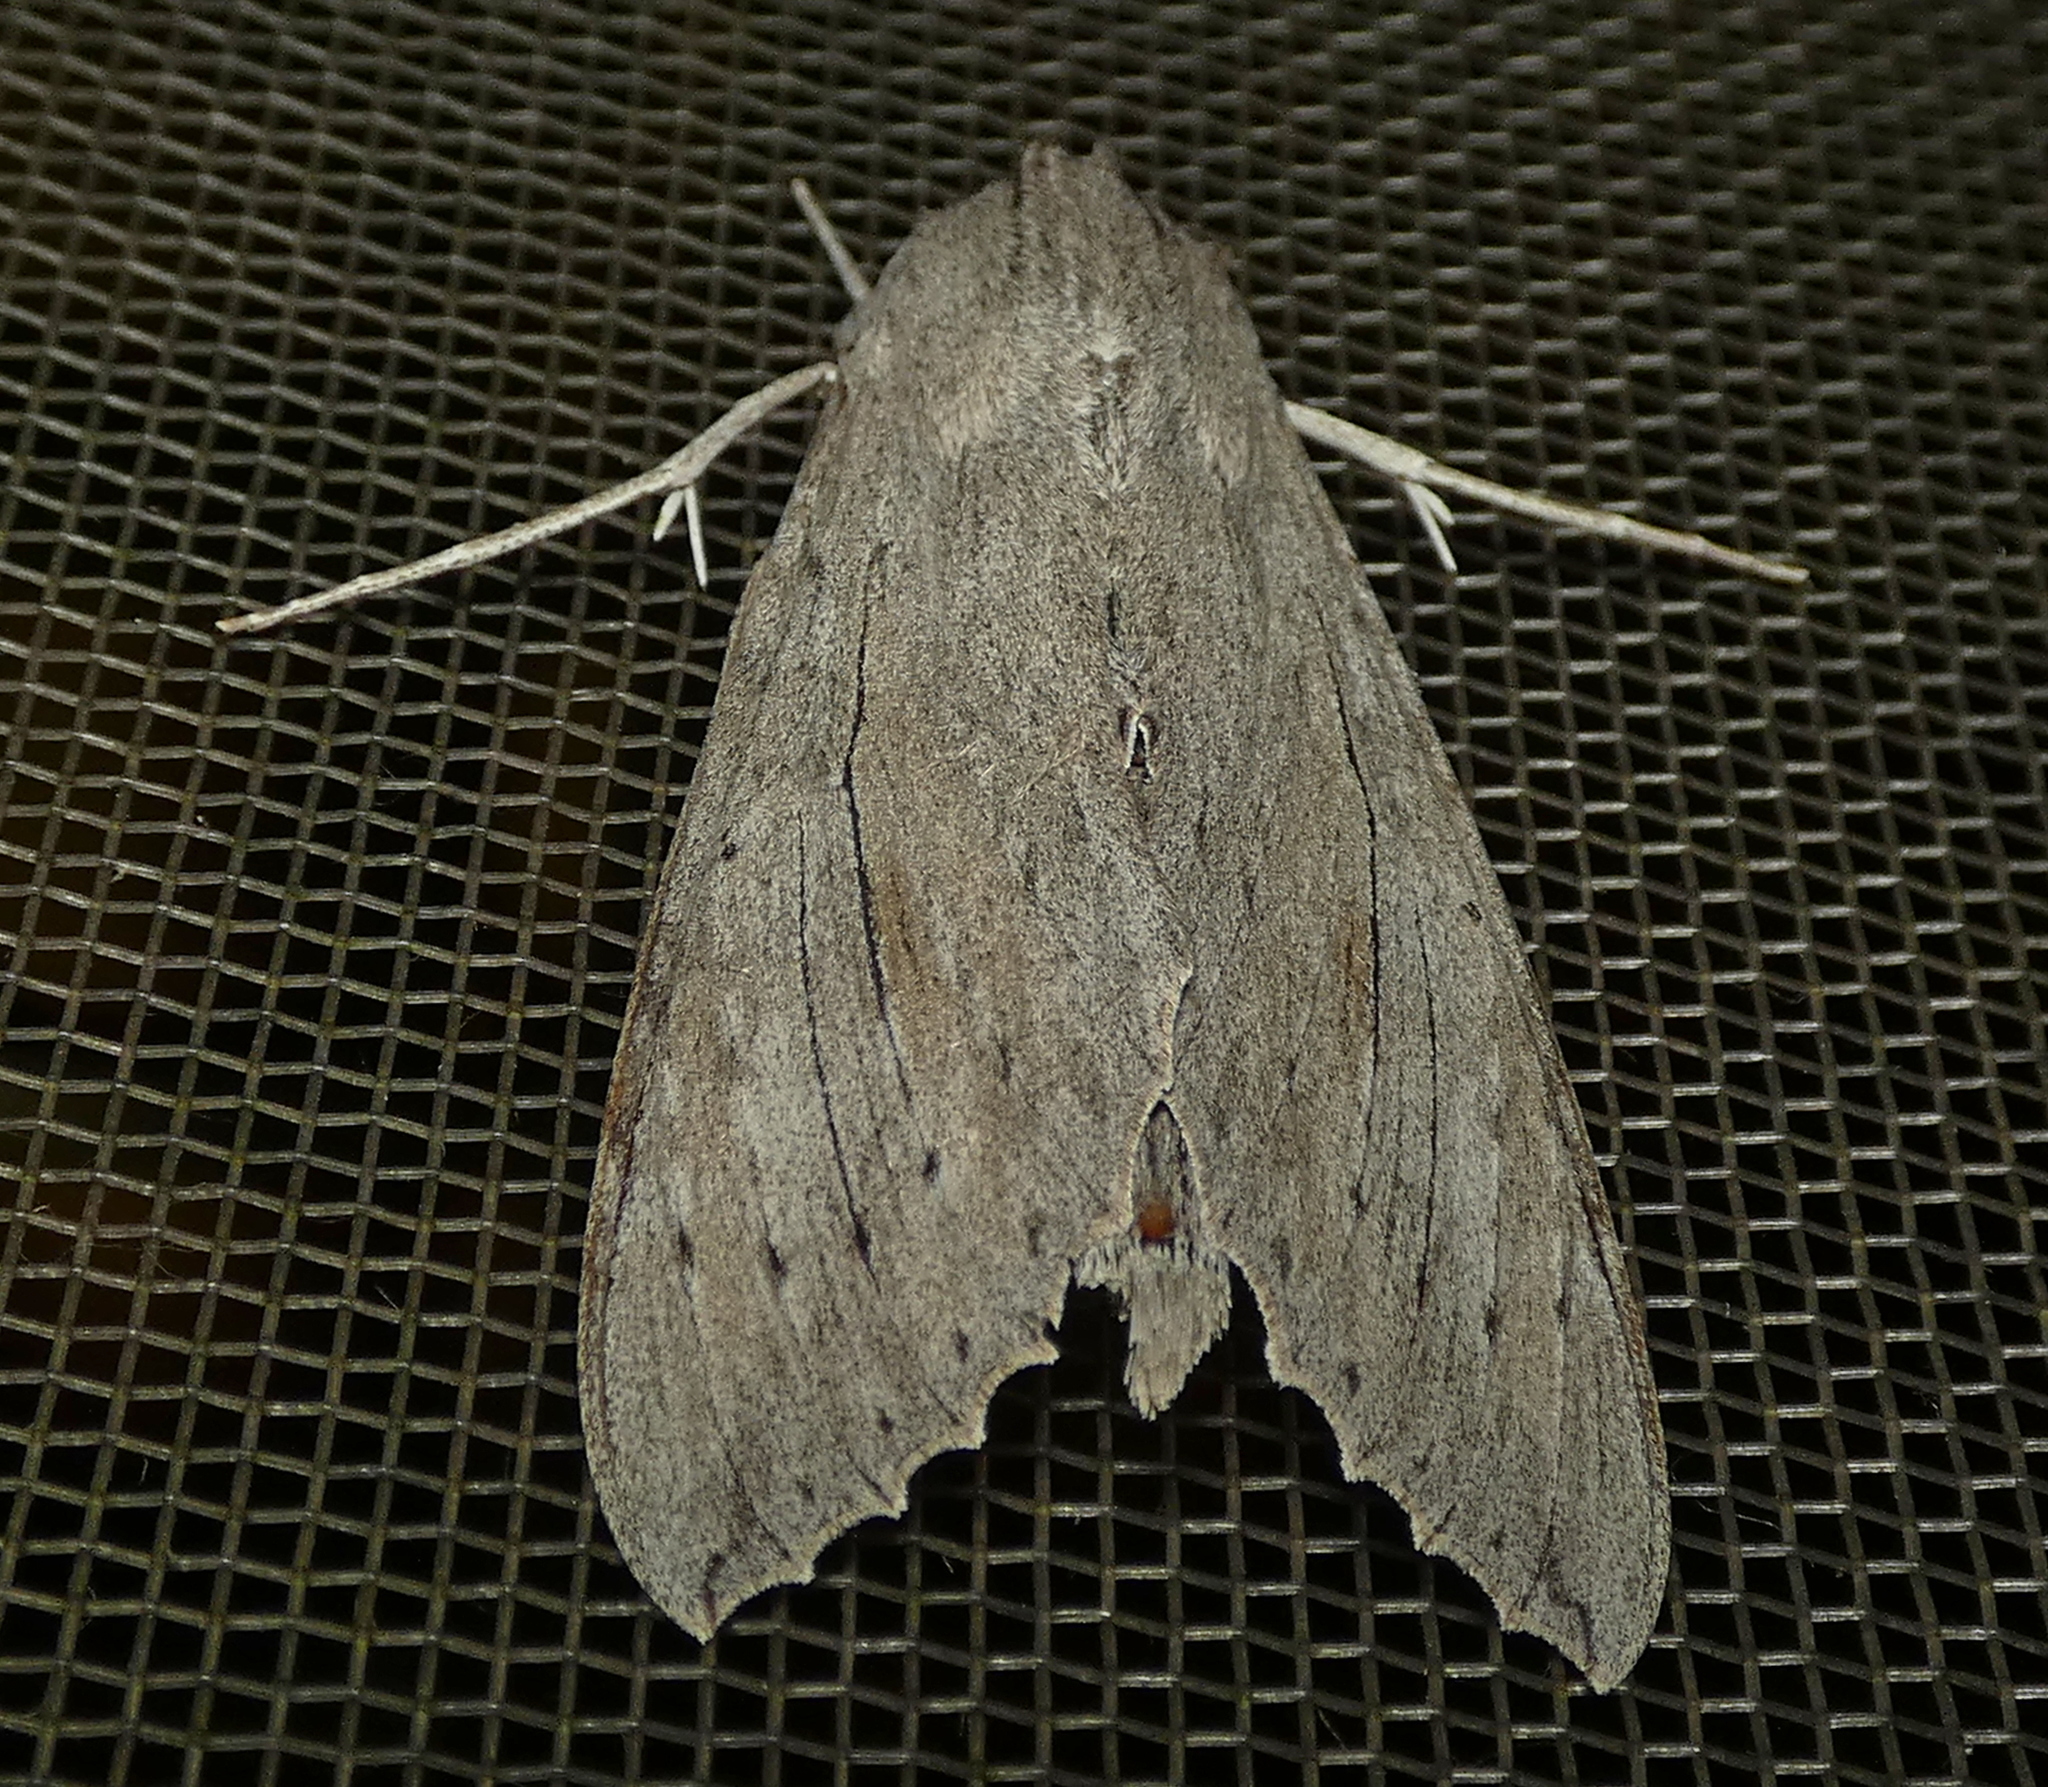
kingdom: Animalia
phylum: Arthropoda
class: Insecta
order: Lepidoptera
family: Sphingidae
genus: Erinnyis
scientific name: Erinnyis ello
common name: Ello sphinx
